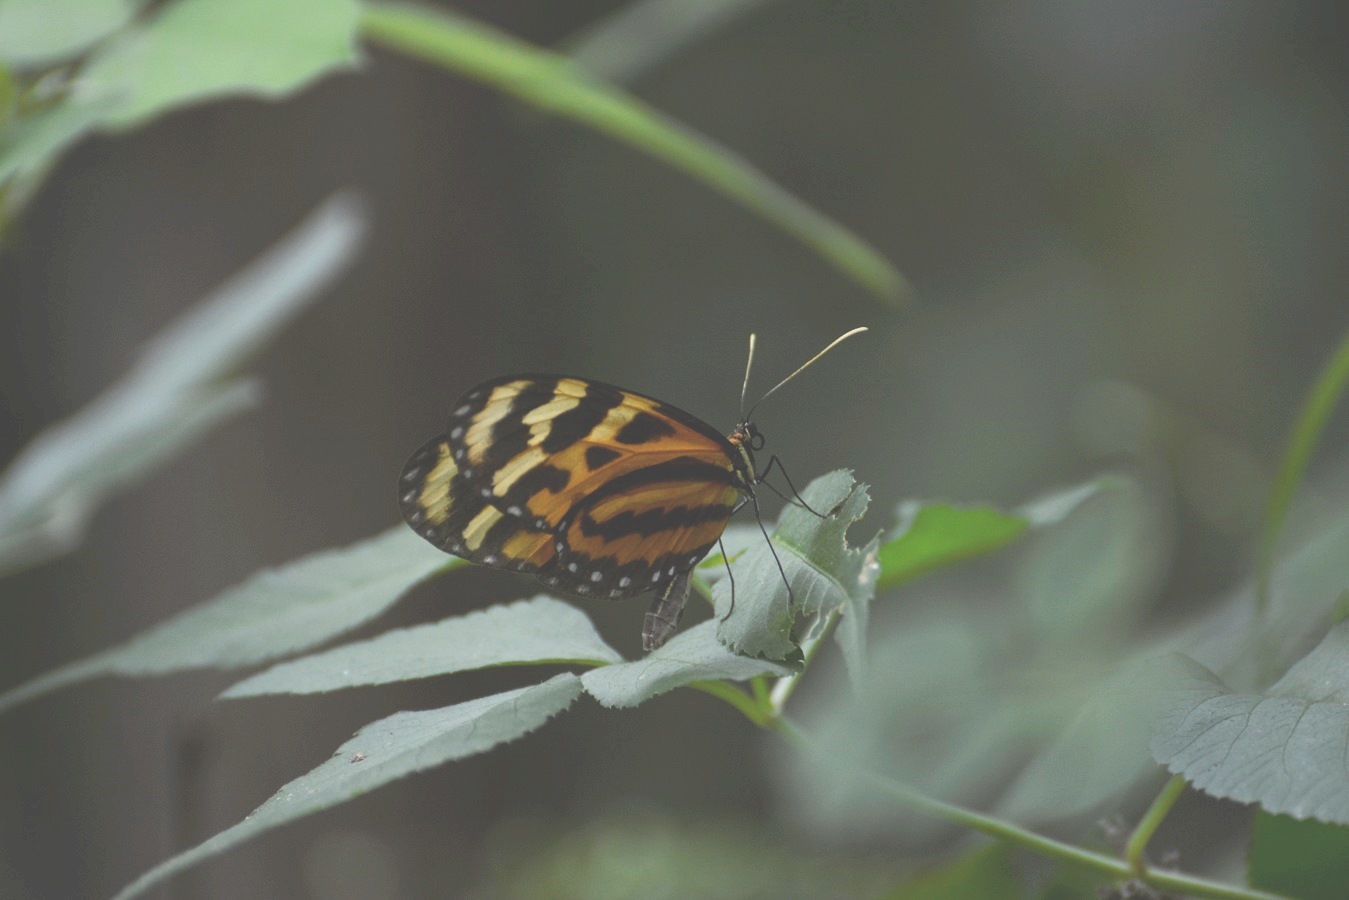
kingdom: Animalia
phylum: Arthropoda
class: Insecta
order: Lepidoptera
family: Nymphalidae
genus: Mechanitis
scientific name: Mechanitis lysimnia
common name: Lysimnia tigerwing
